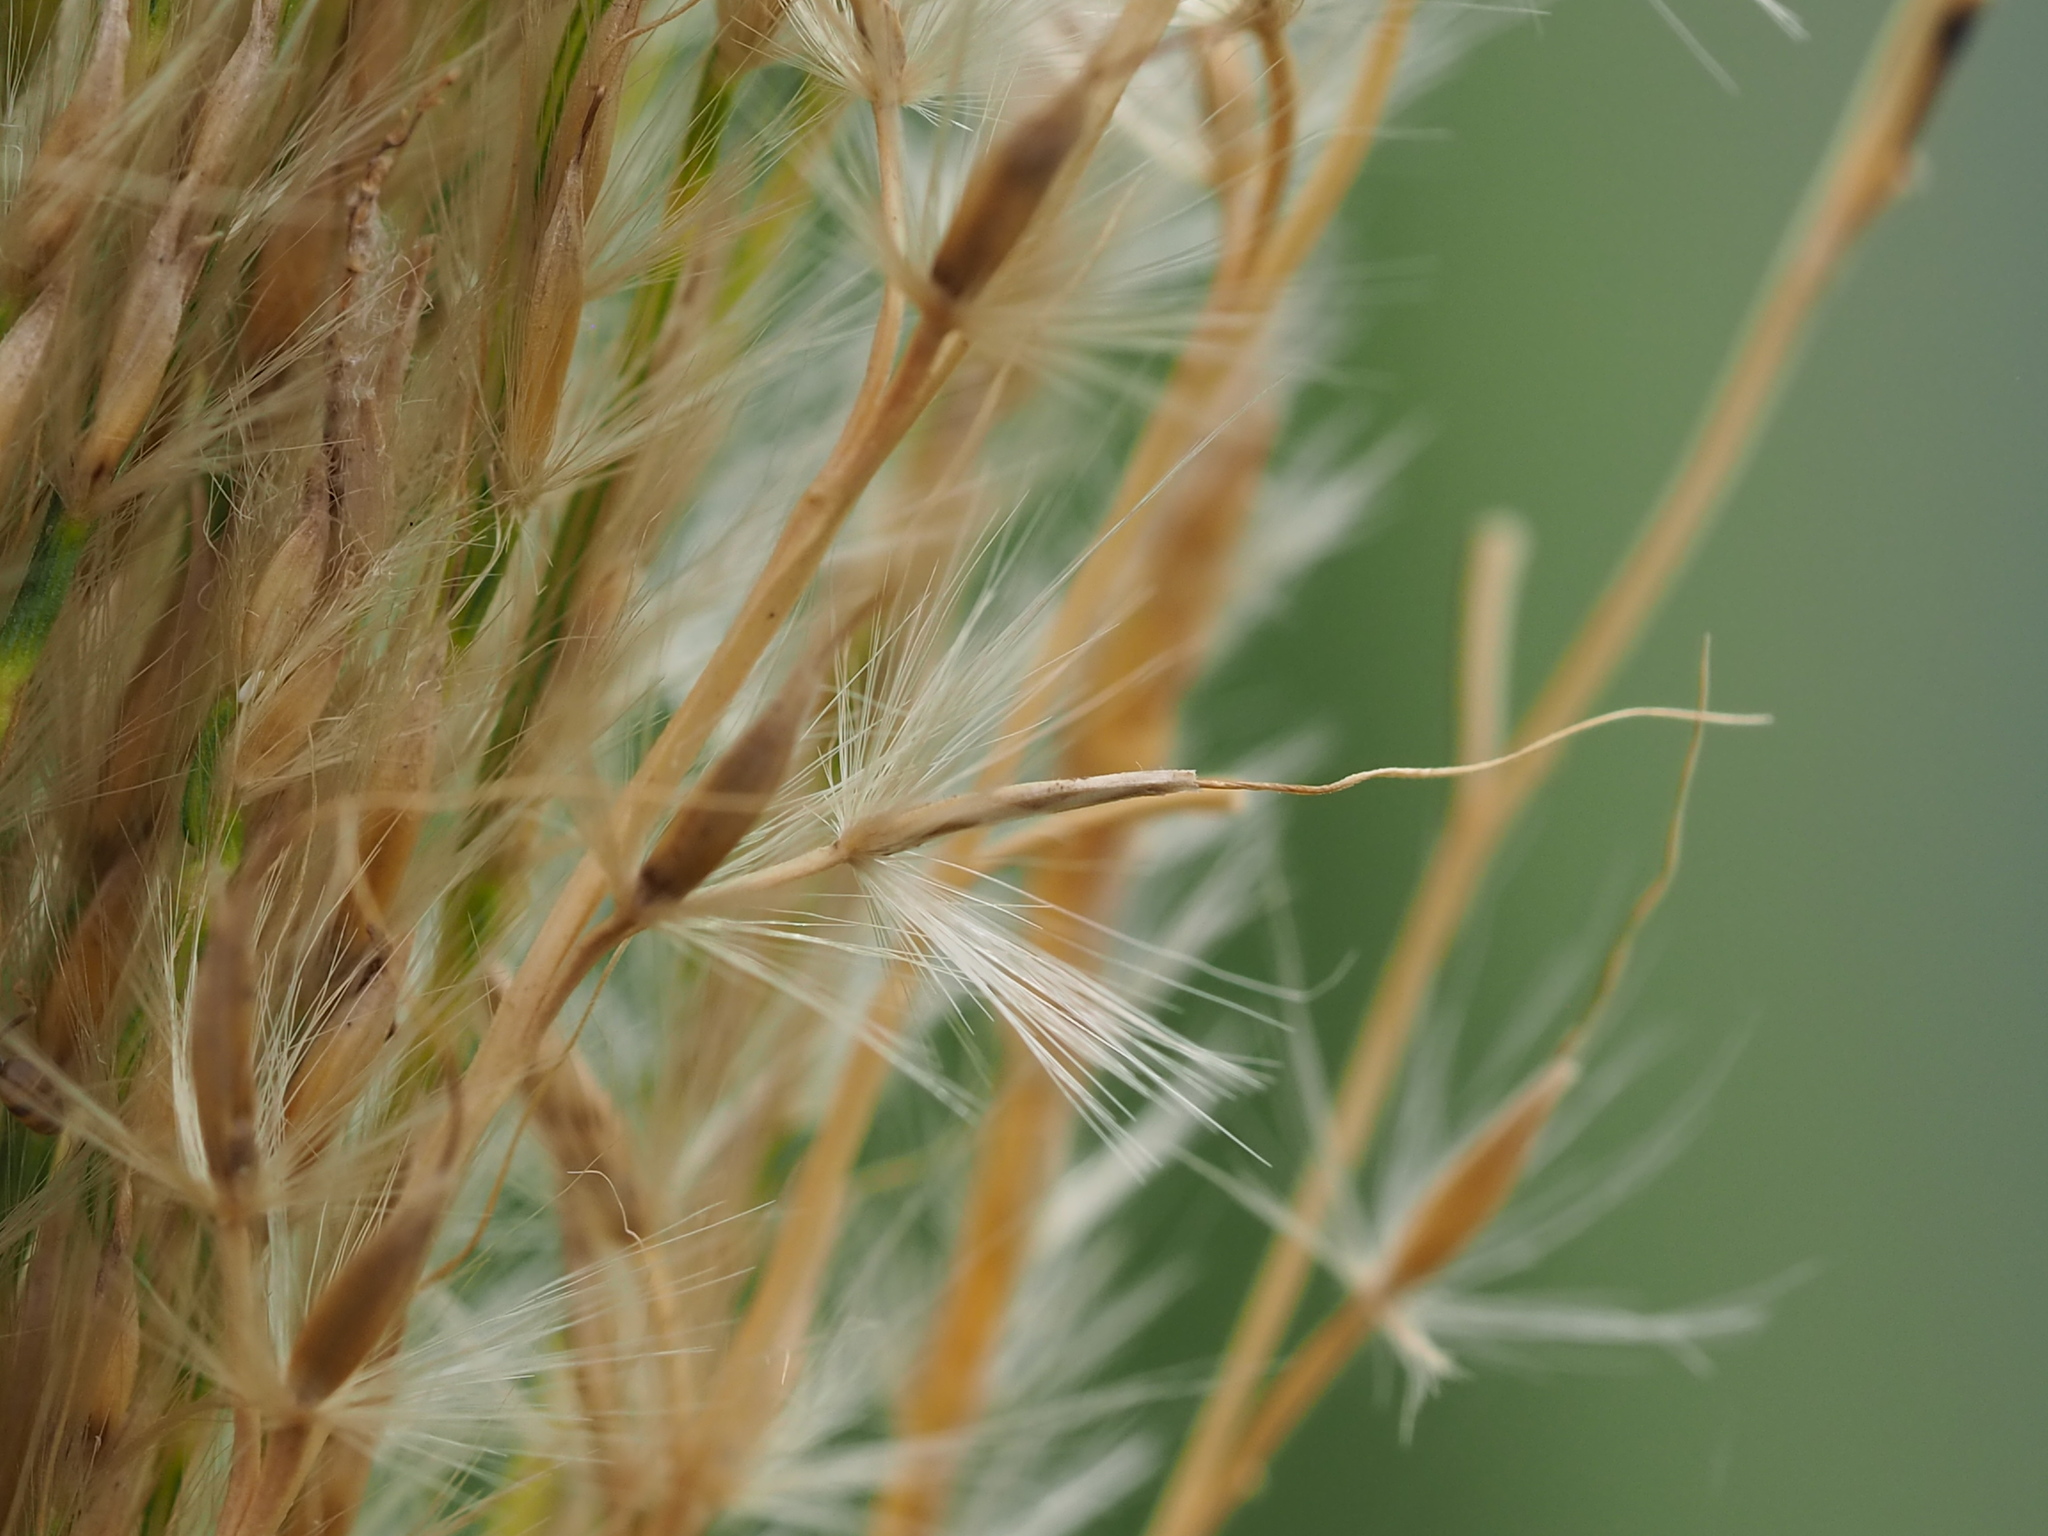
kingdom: Plantae
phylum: Tracheophyta
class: Liliopsida
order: Poales
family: Poaceae
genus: Miscanthus
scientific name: Miscanthus sinensis
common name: Chinese silvergrass
